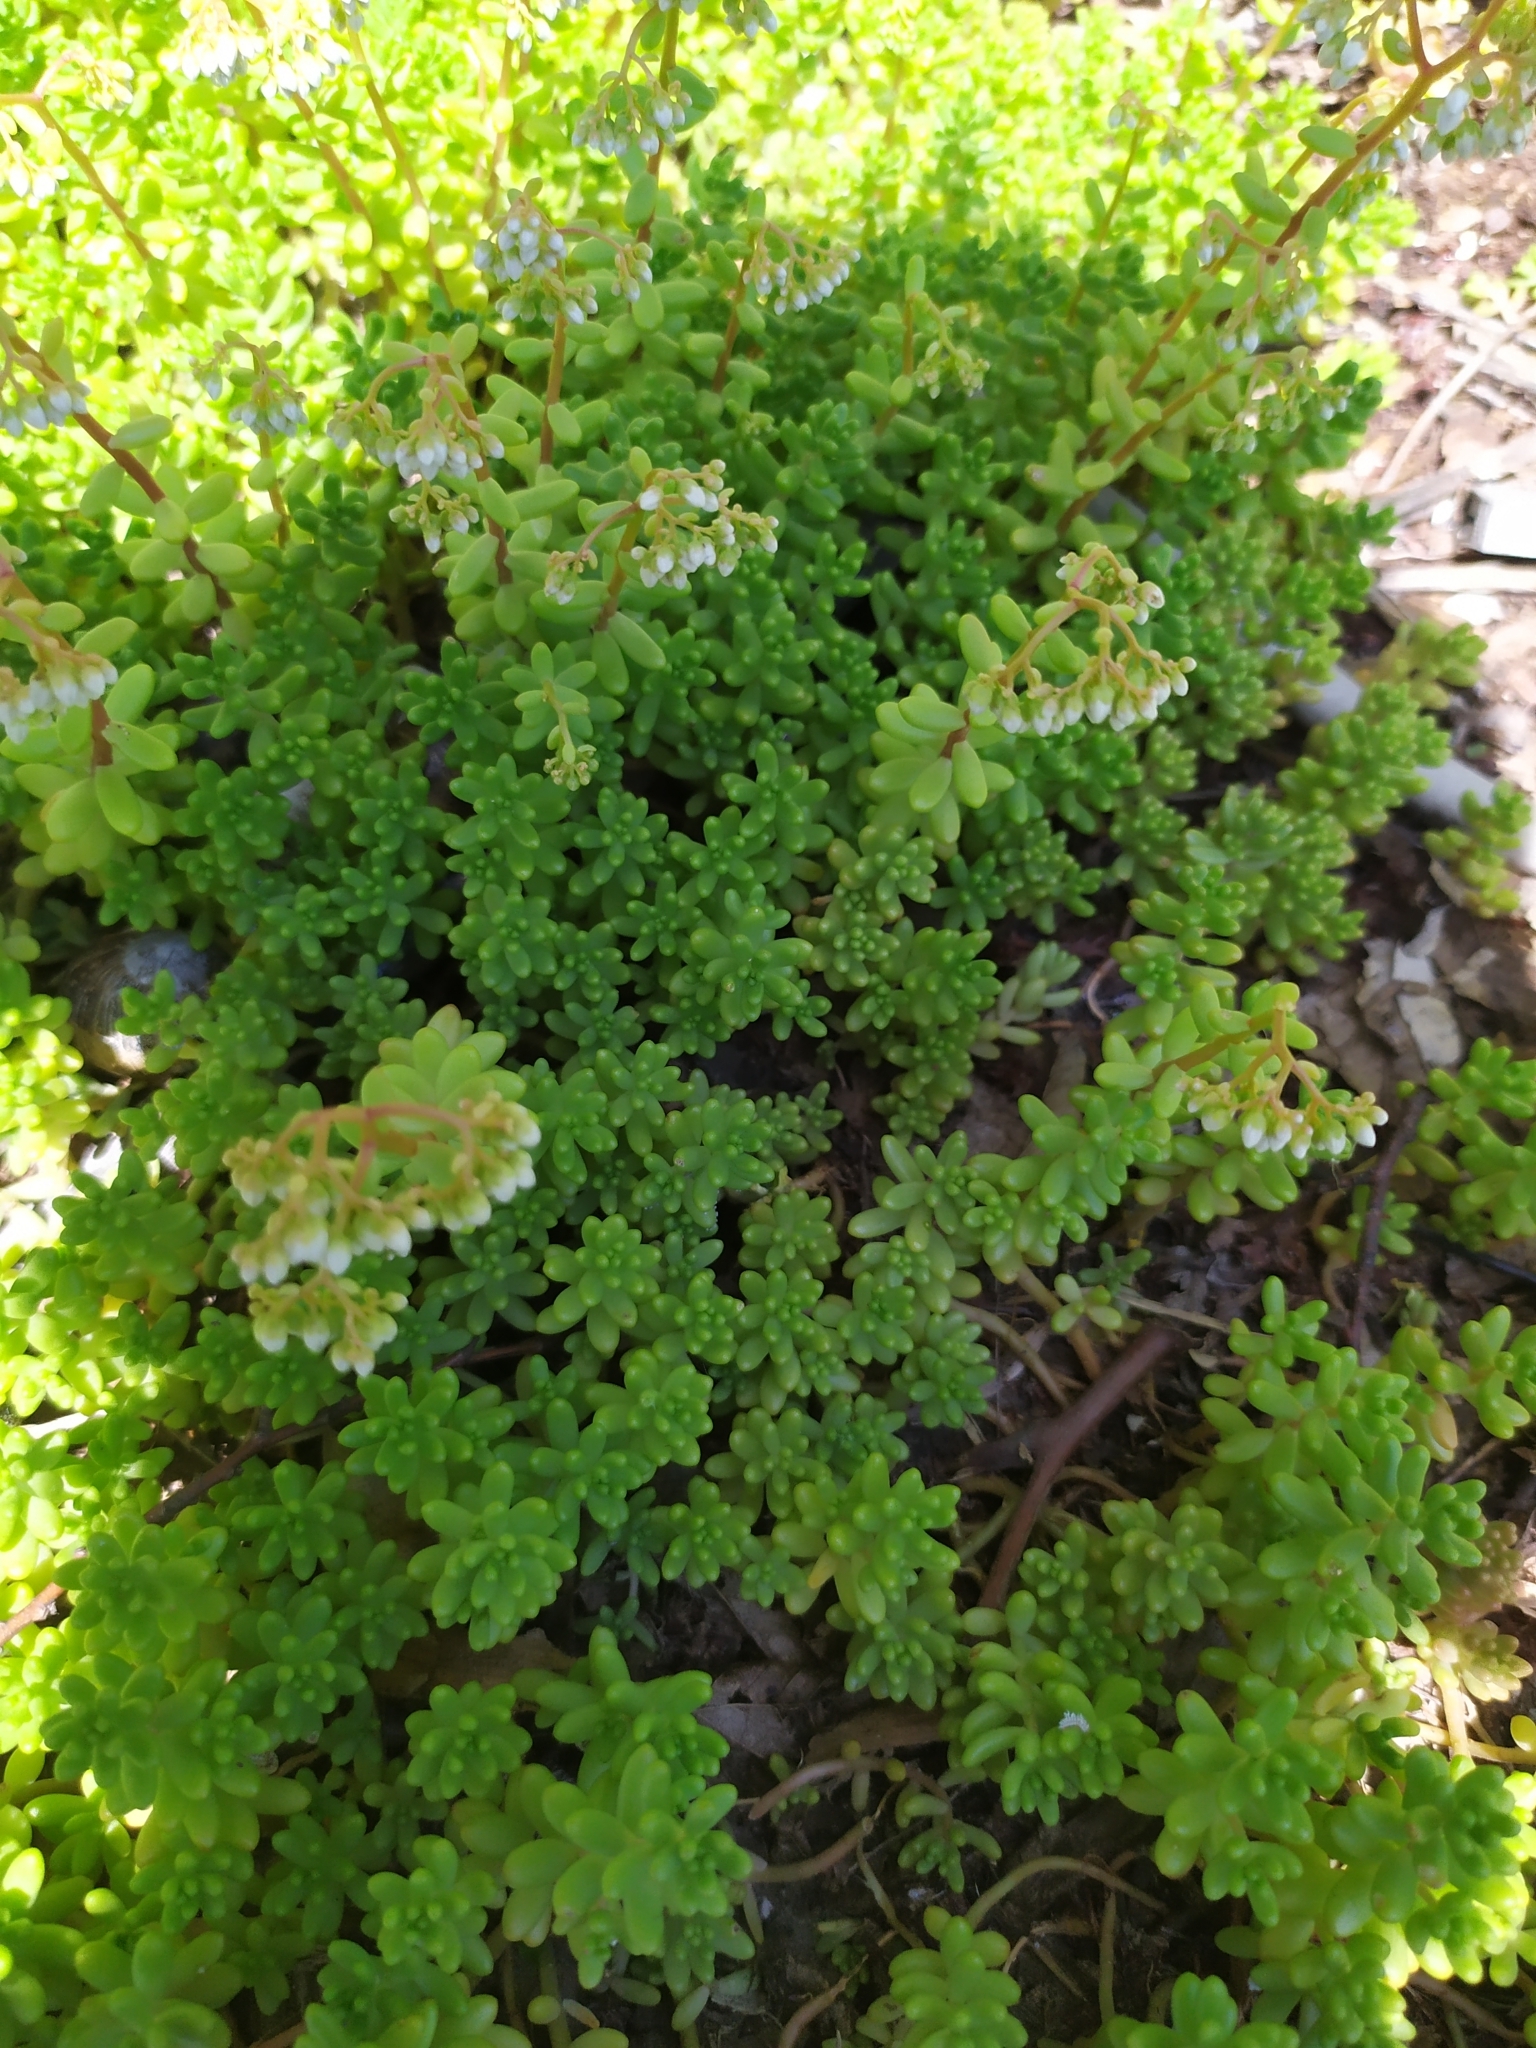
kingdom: Plantae
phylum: Tracheophyta
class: Magnoliopsida
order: Saxifragales
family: Crassulaceae
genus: Sedum
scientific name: Sedum album
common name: White stonecrop
